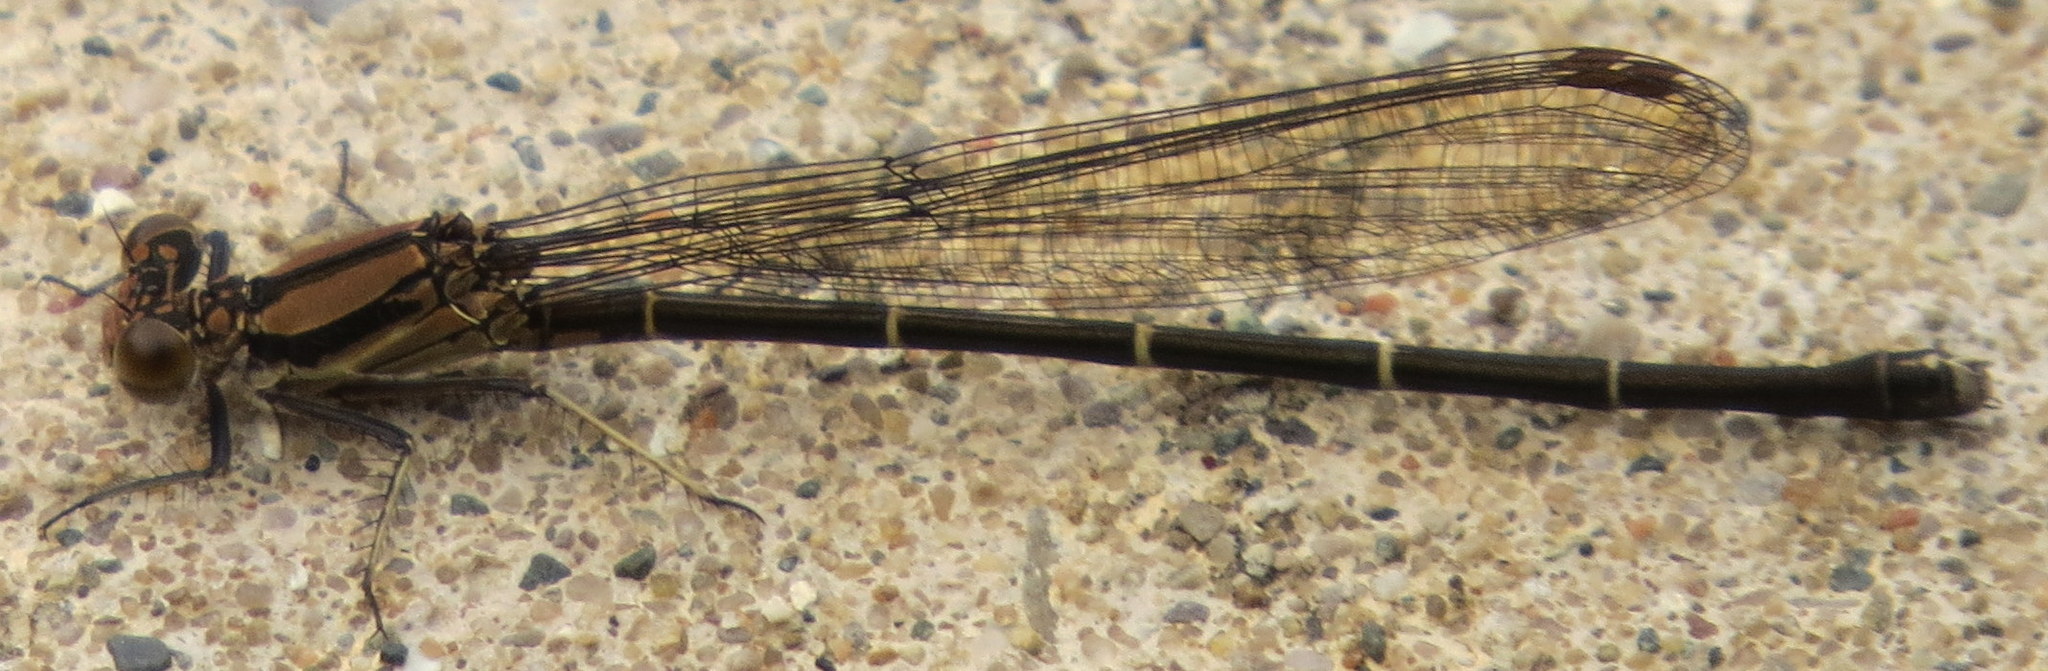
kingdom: Animalia
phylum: Arthropoda
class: Insecta
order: Odonata
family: Coenagrionidae
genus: Argia
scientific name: Argia tibialis
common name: Blue-tipped dancer
